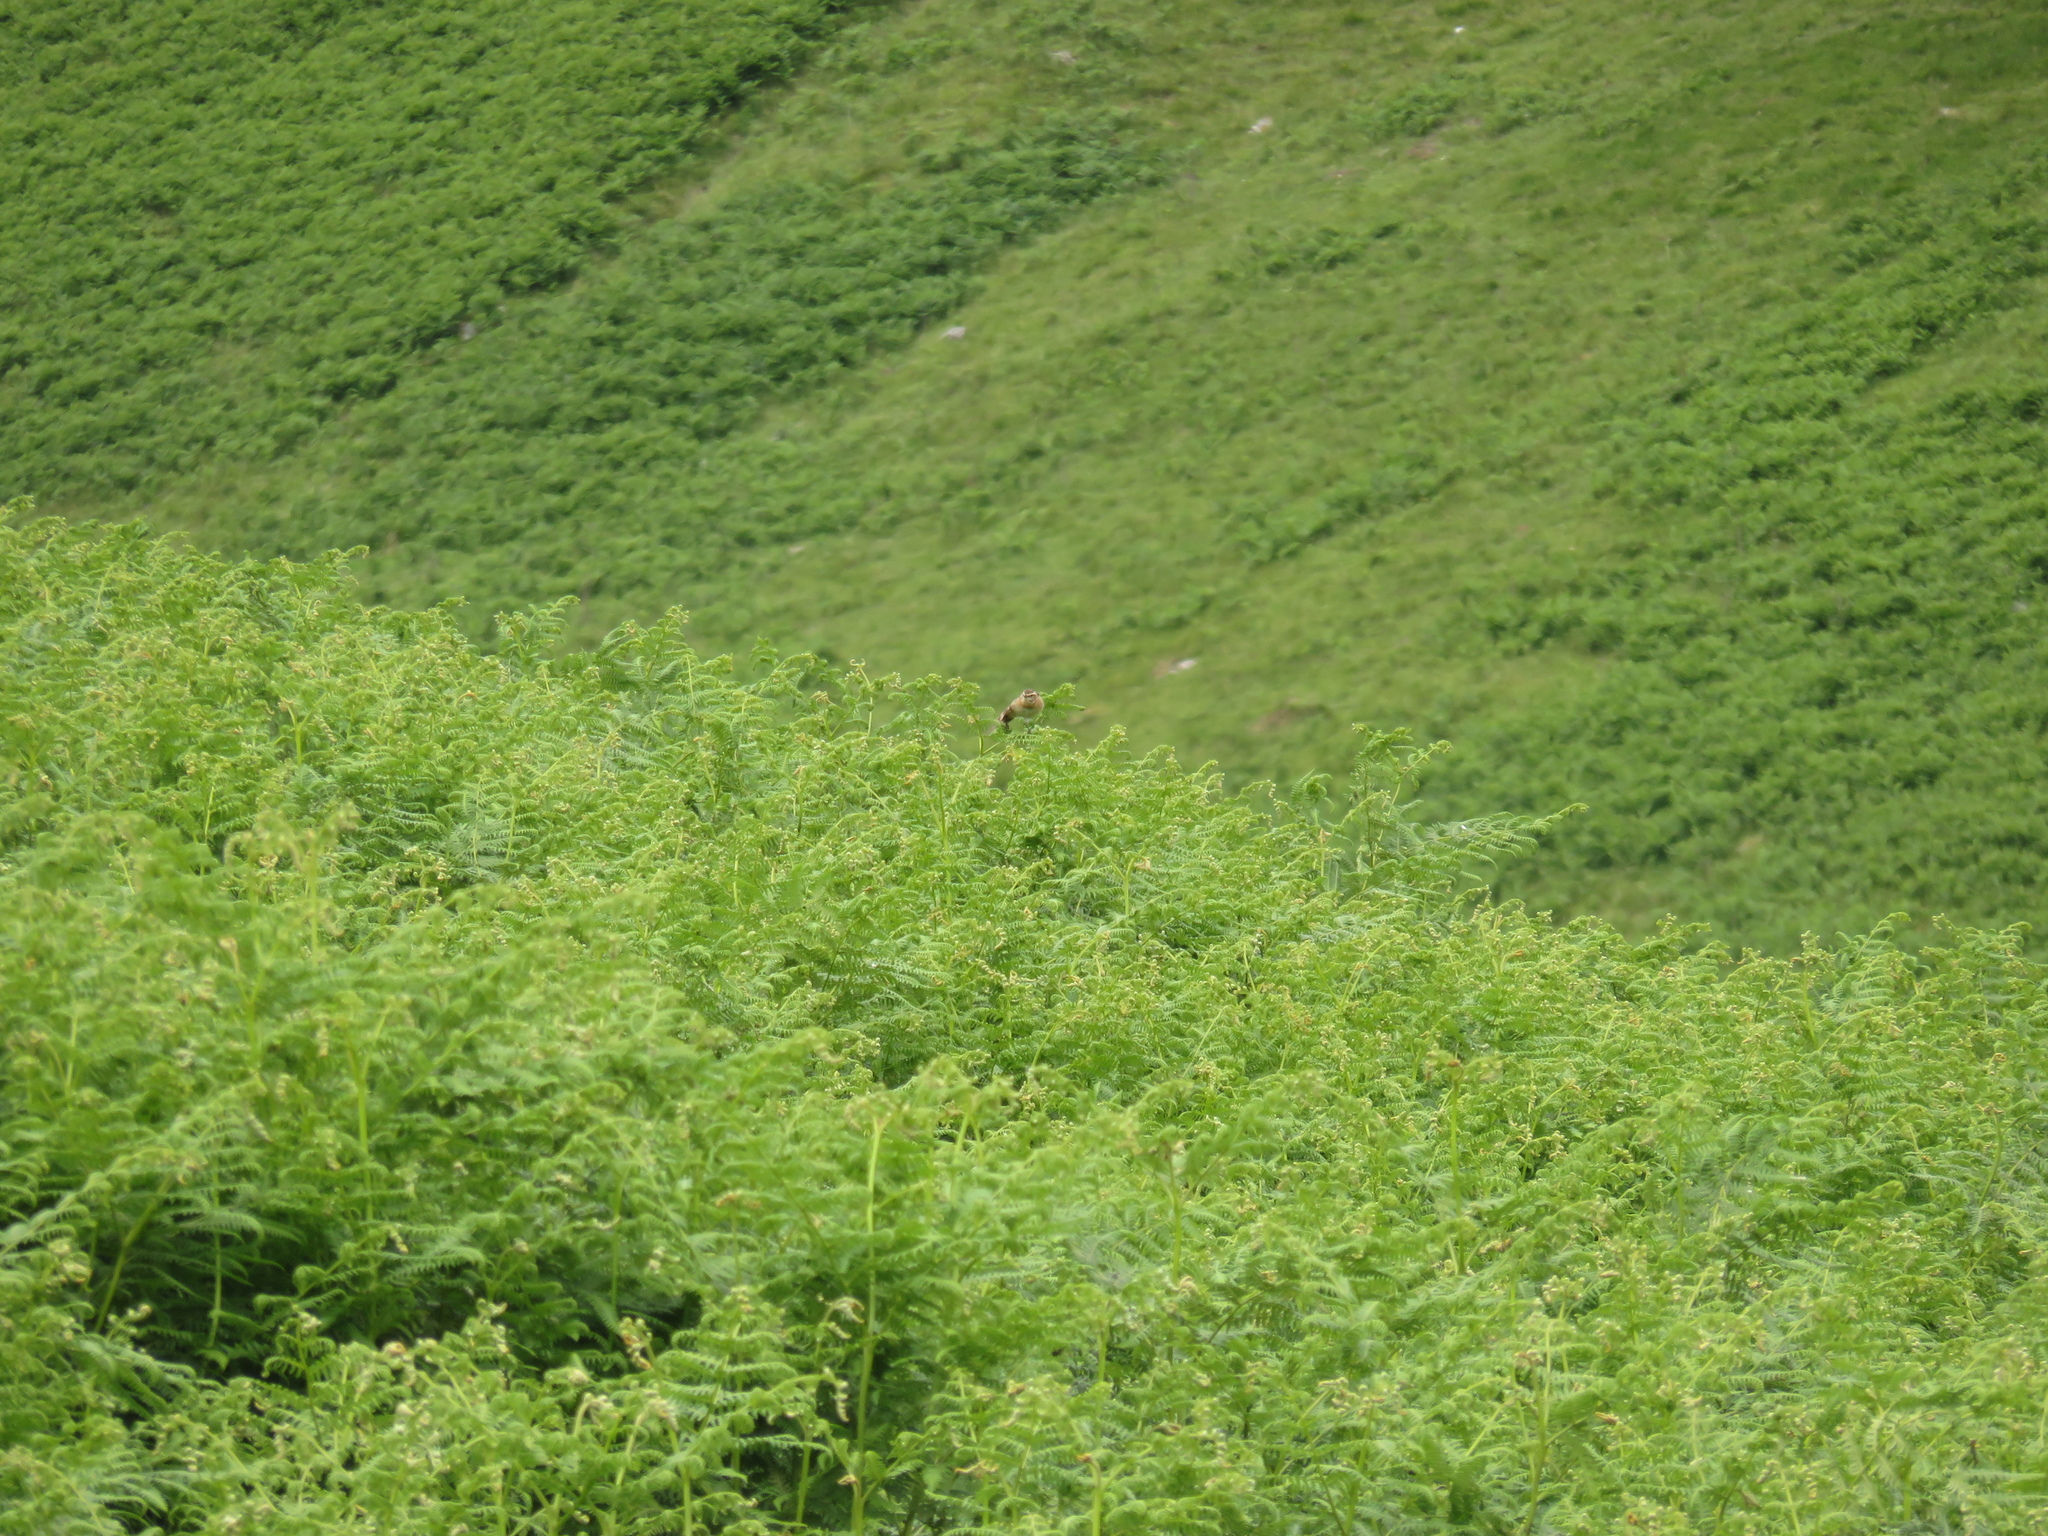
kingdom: Animalia
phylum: Chordata
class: Aves
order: Passeriformes
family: Muscicapidae
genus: Saxicola
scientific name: Saxicola rubetra
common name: Whinchat
